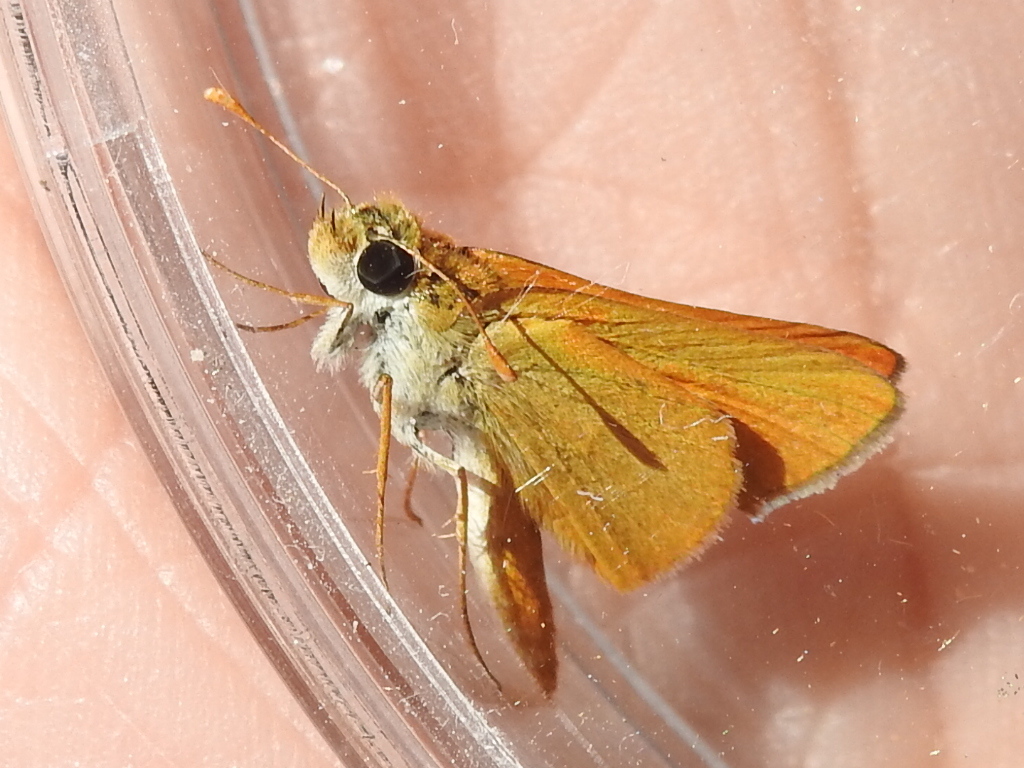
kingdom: Animalia
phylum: Arthropoda
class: Insecta
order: Lepidoptera
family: Hesperiidae
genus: Copaeodes
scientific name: Copaeodes aurantiaca
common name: Orange skipperling
